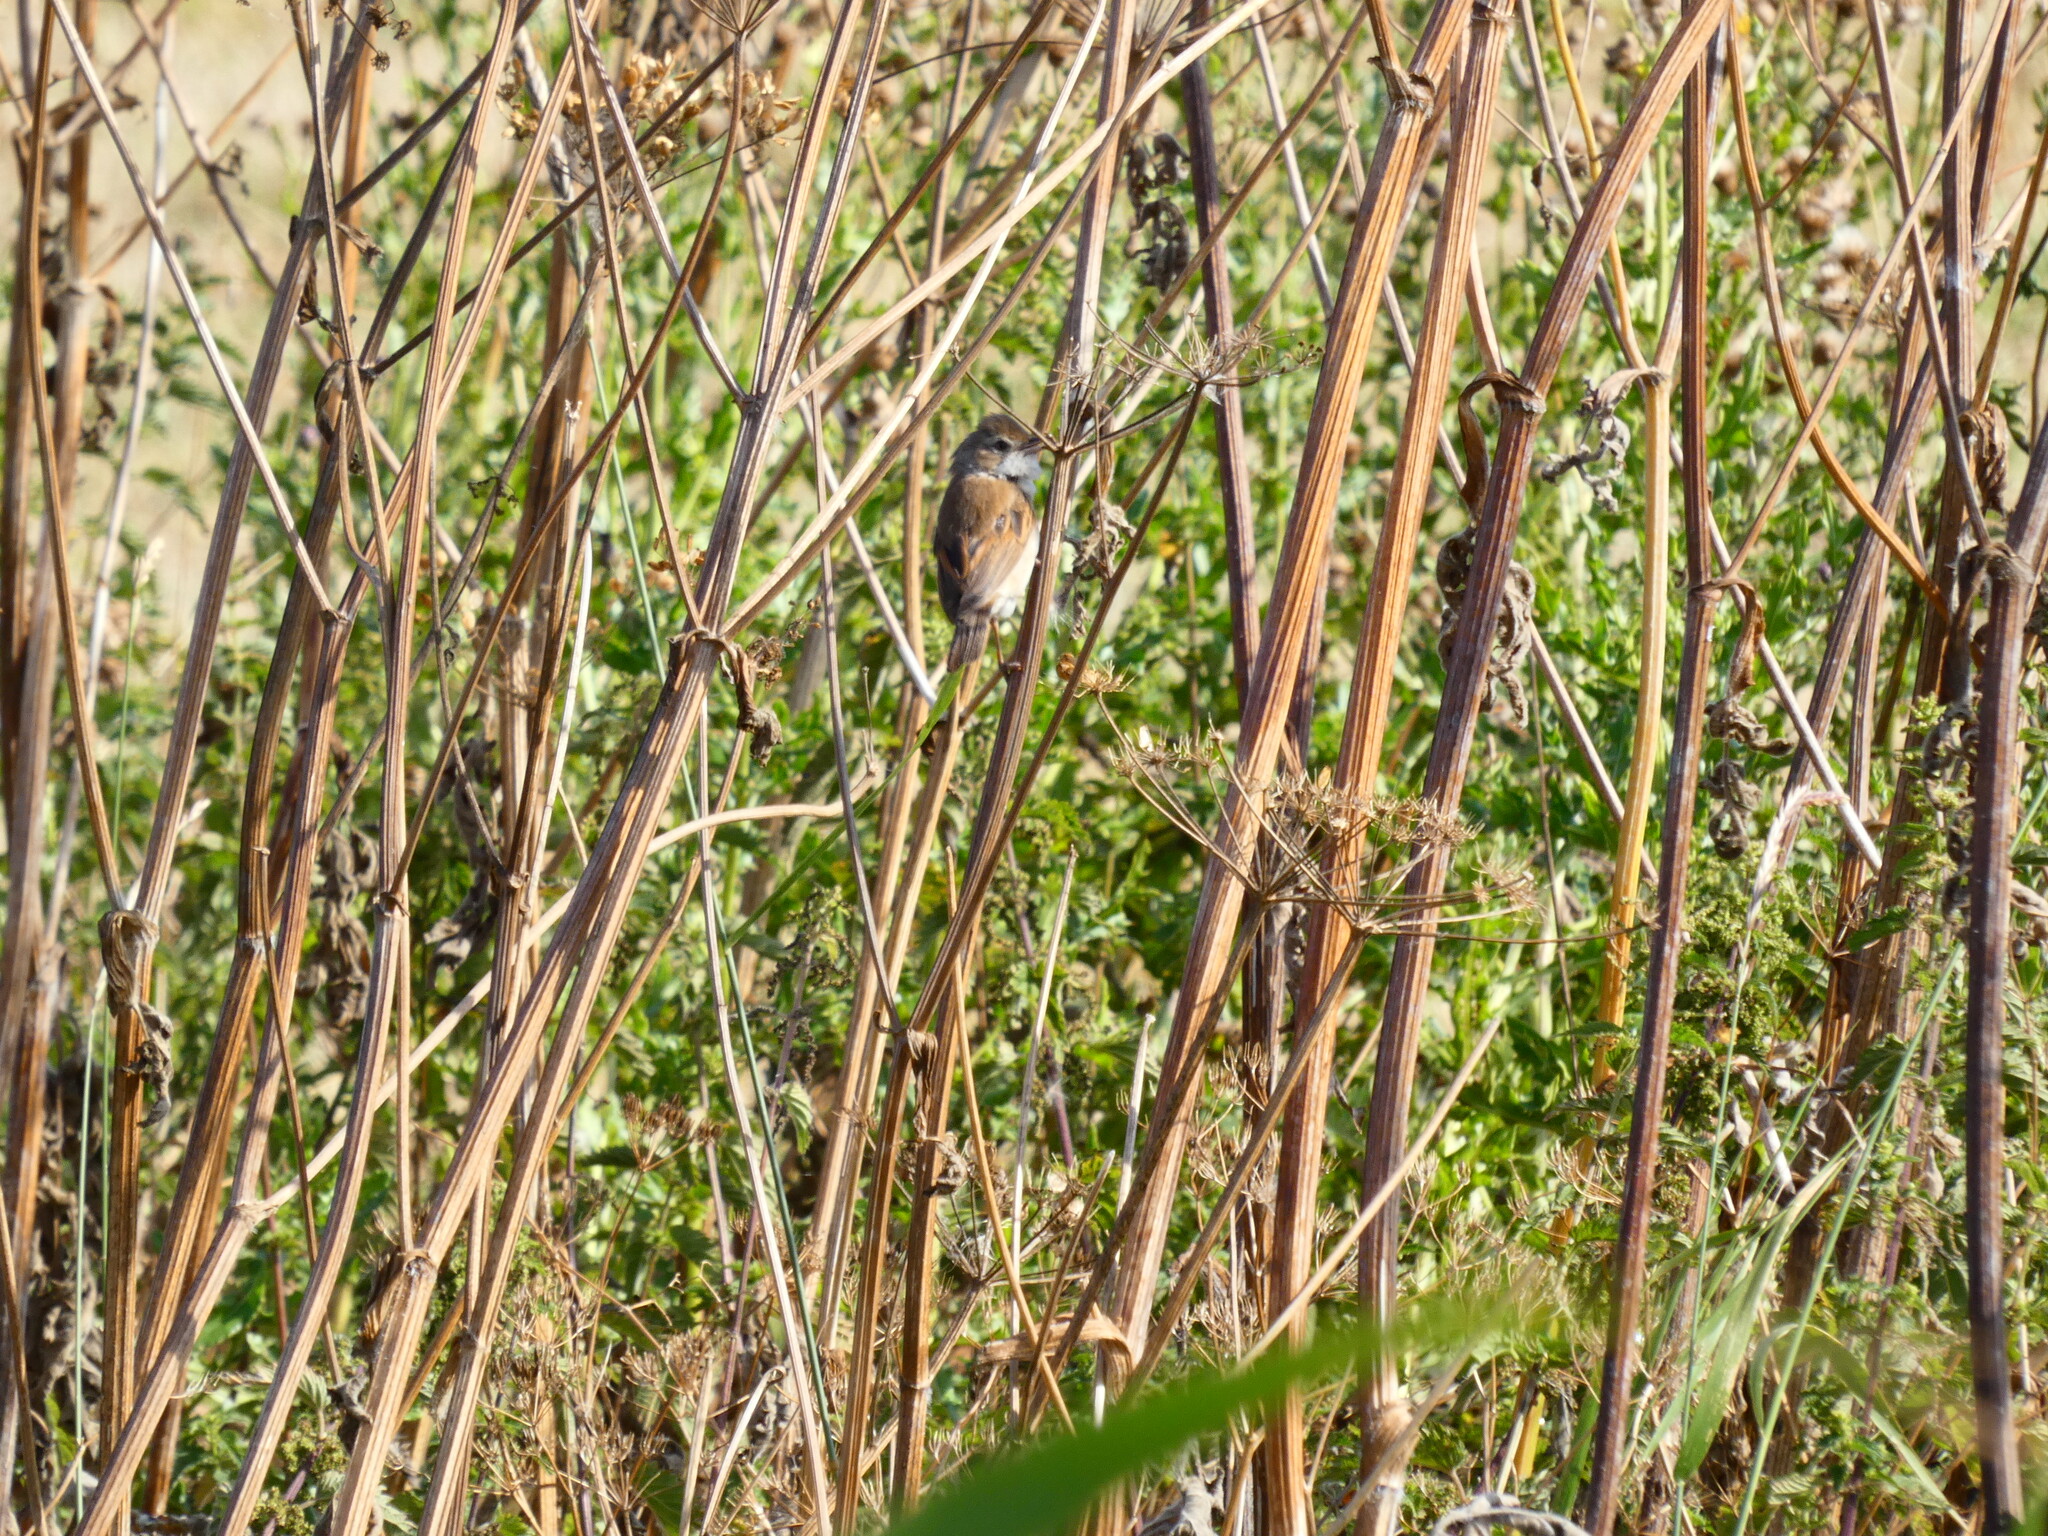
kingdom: Animalia
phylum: Chordata
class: Aves
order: Passeriformes
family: Sylviidae
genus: Sylvia
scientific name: Sylvia communis
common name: Common whitethroat
